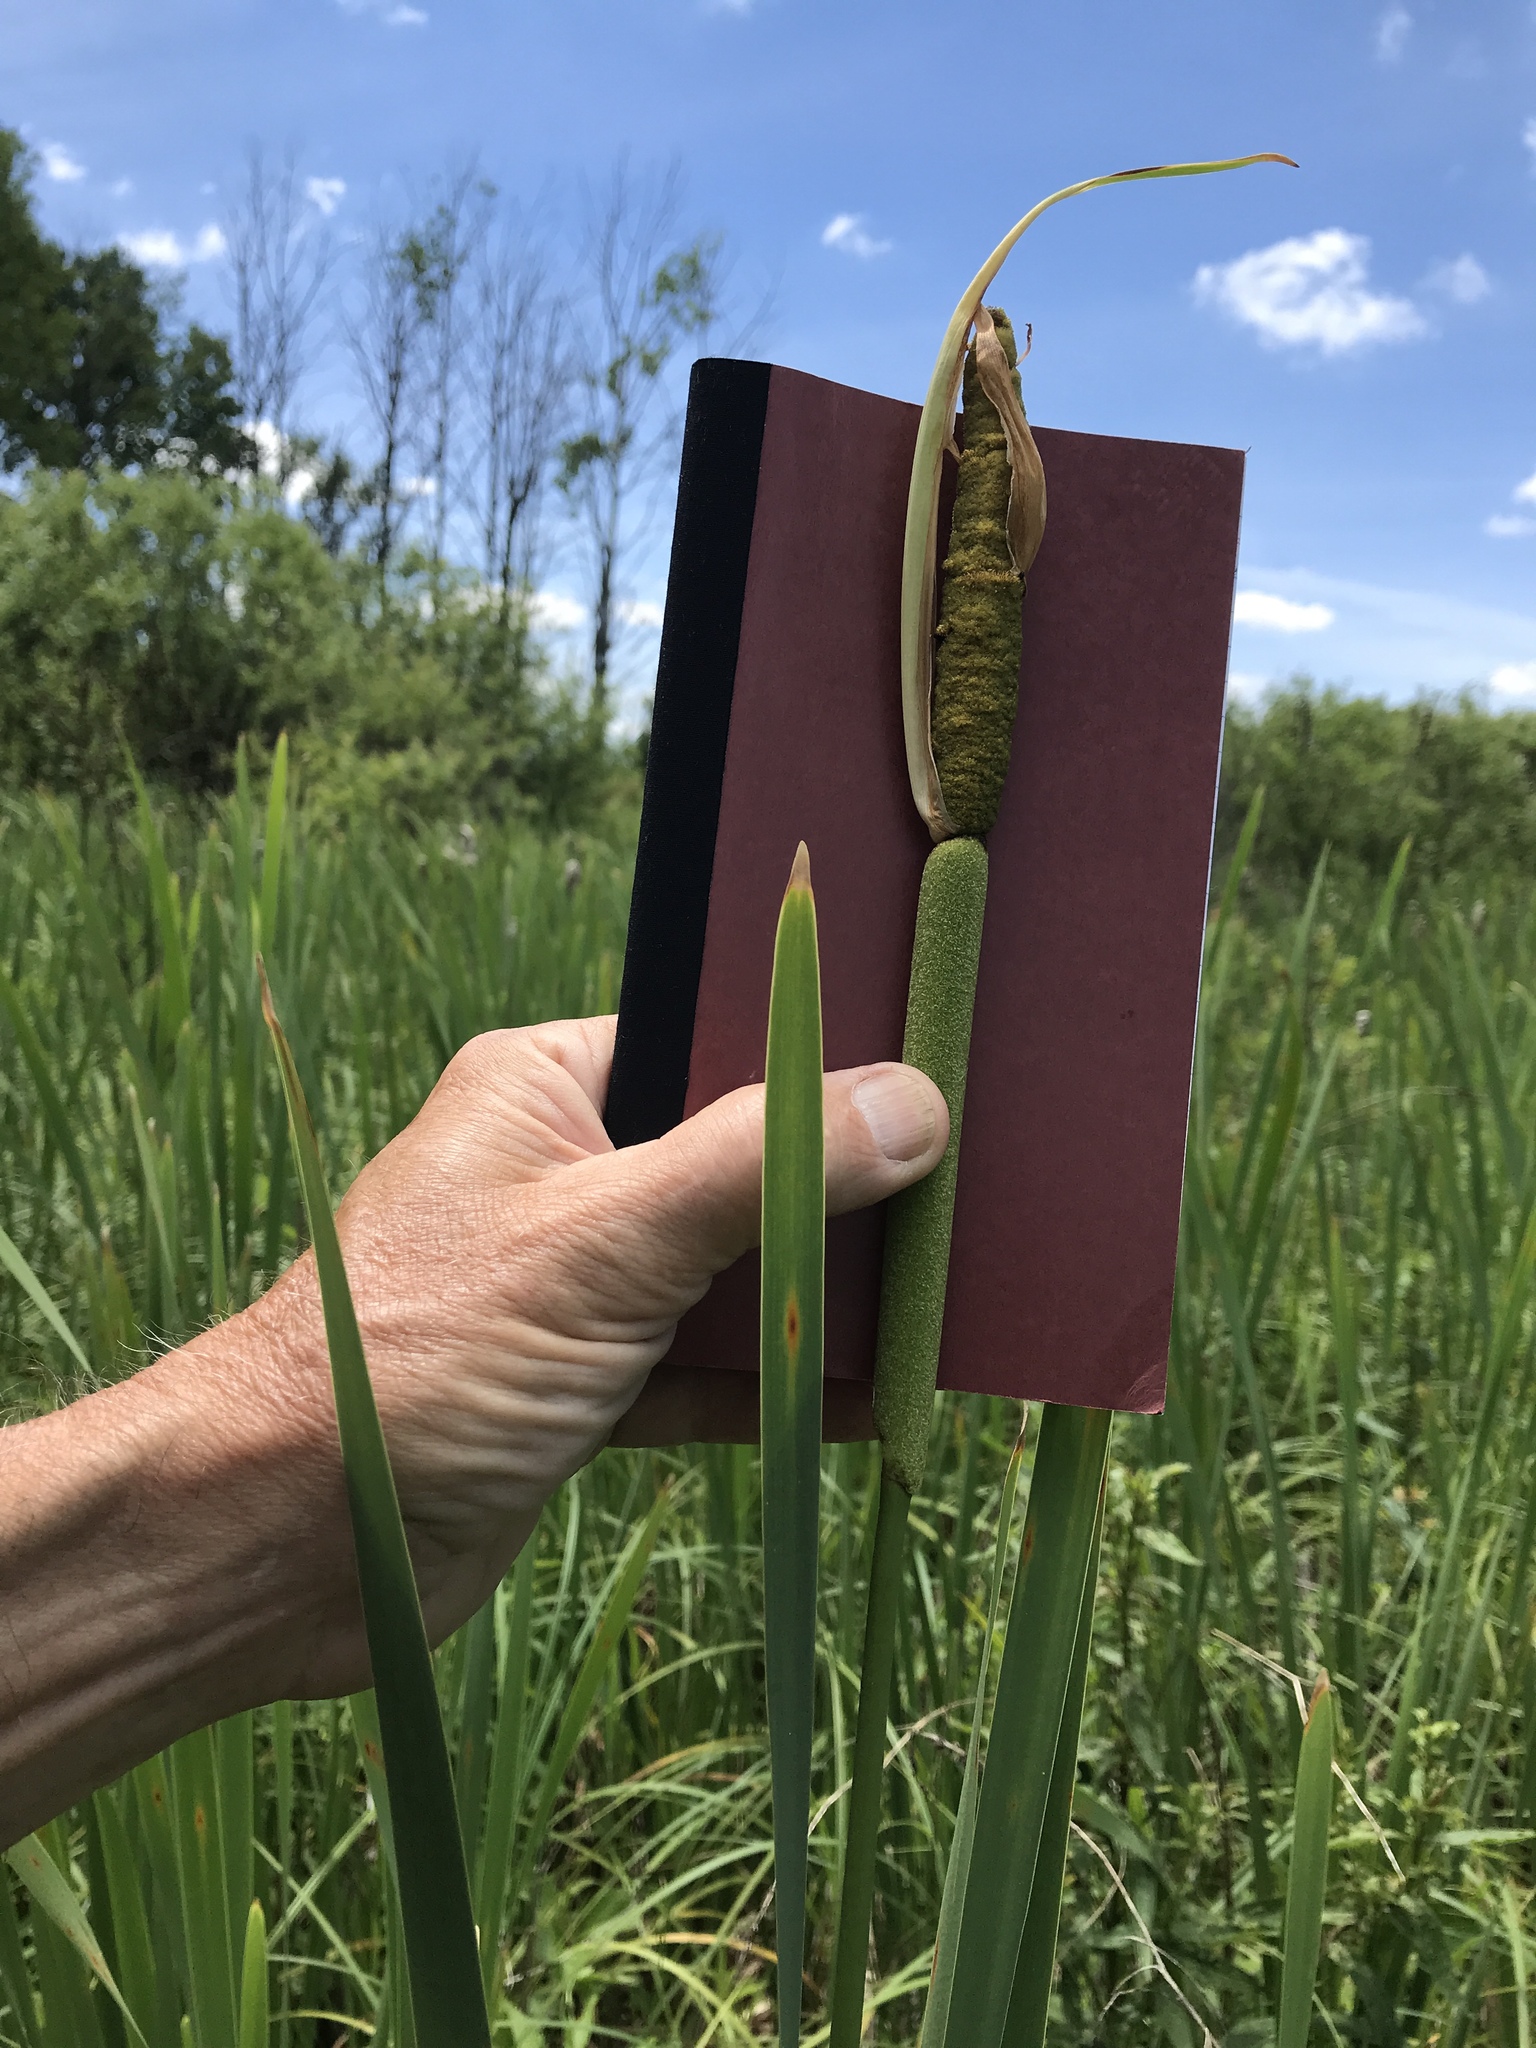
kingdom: Plantae
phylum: Tracheophyta
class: Liliopsida
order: Poales
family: Typhaceae
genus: Typha
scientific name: Typha latifolia
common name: Broadleaf cattail
